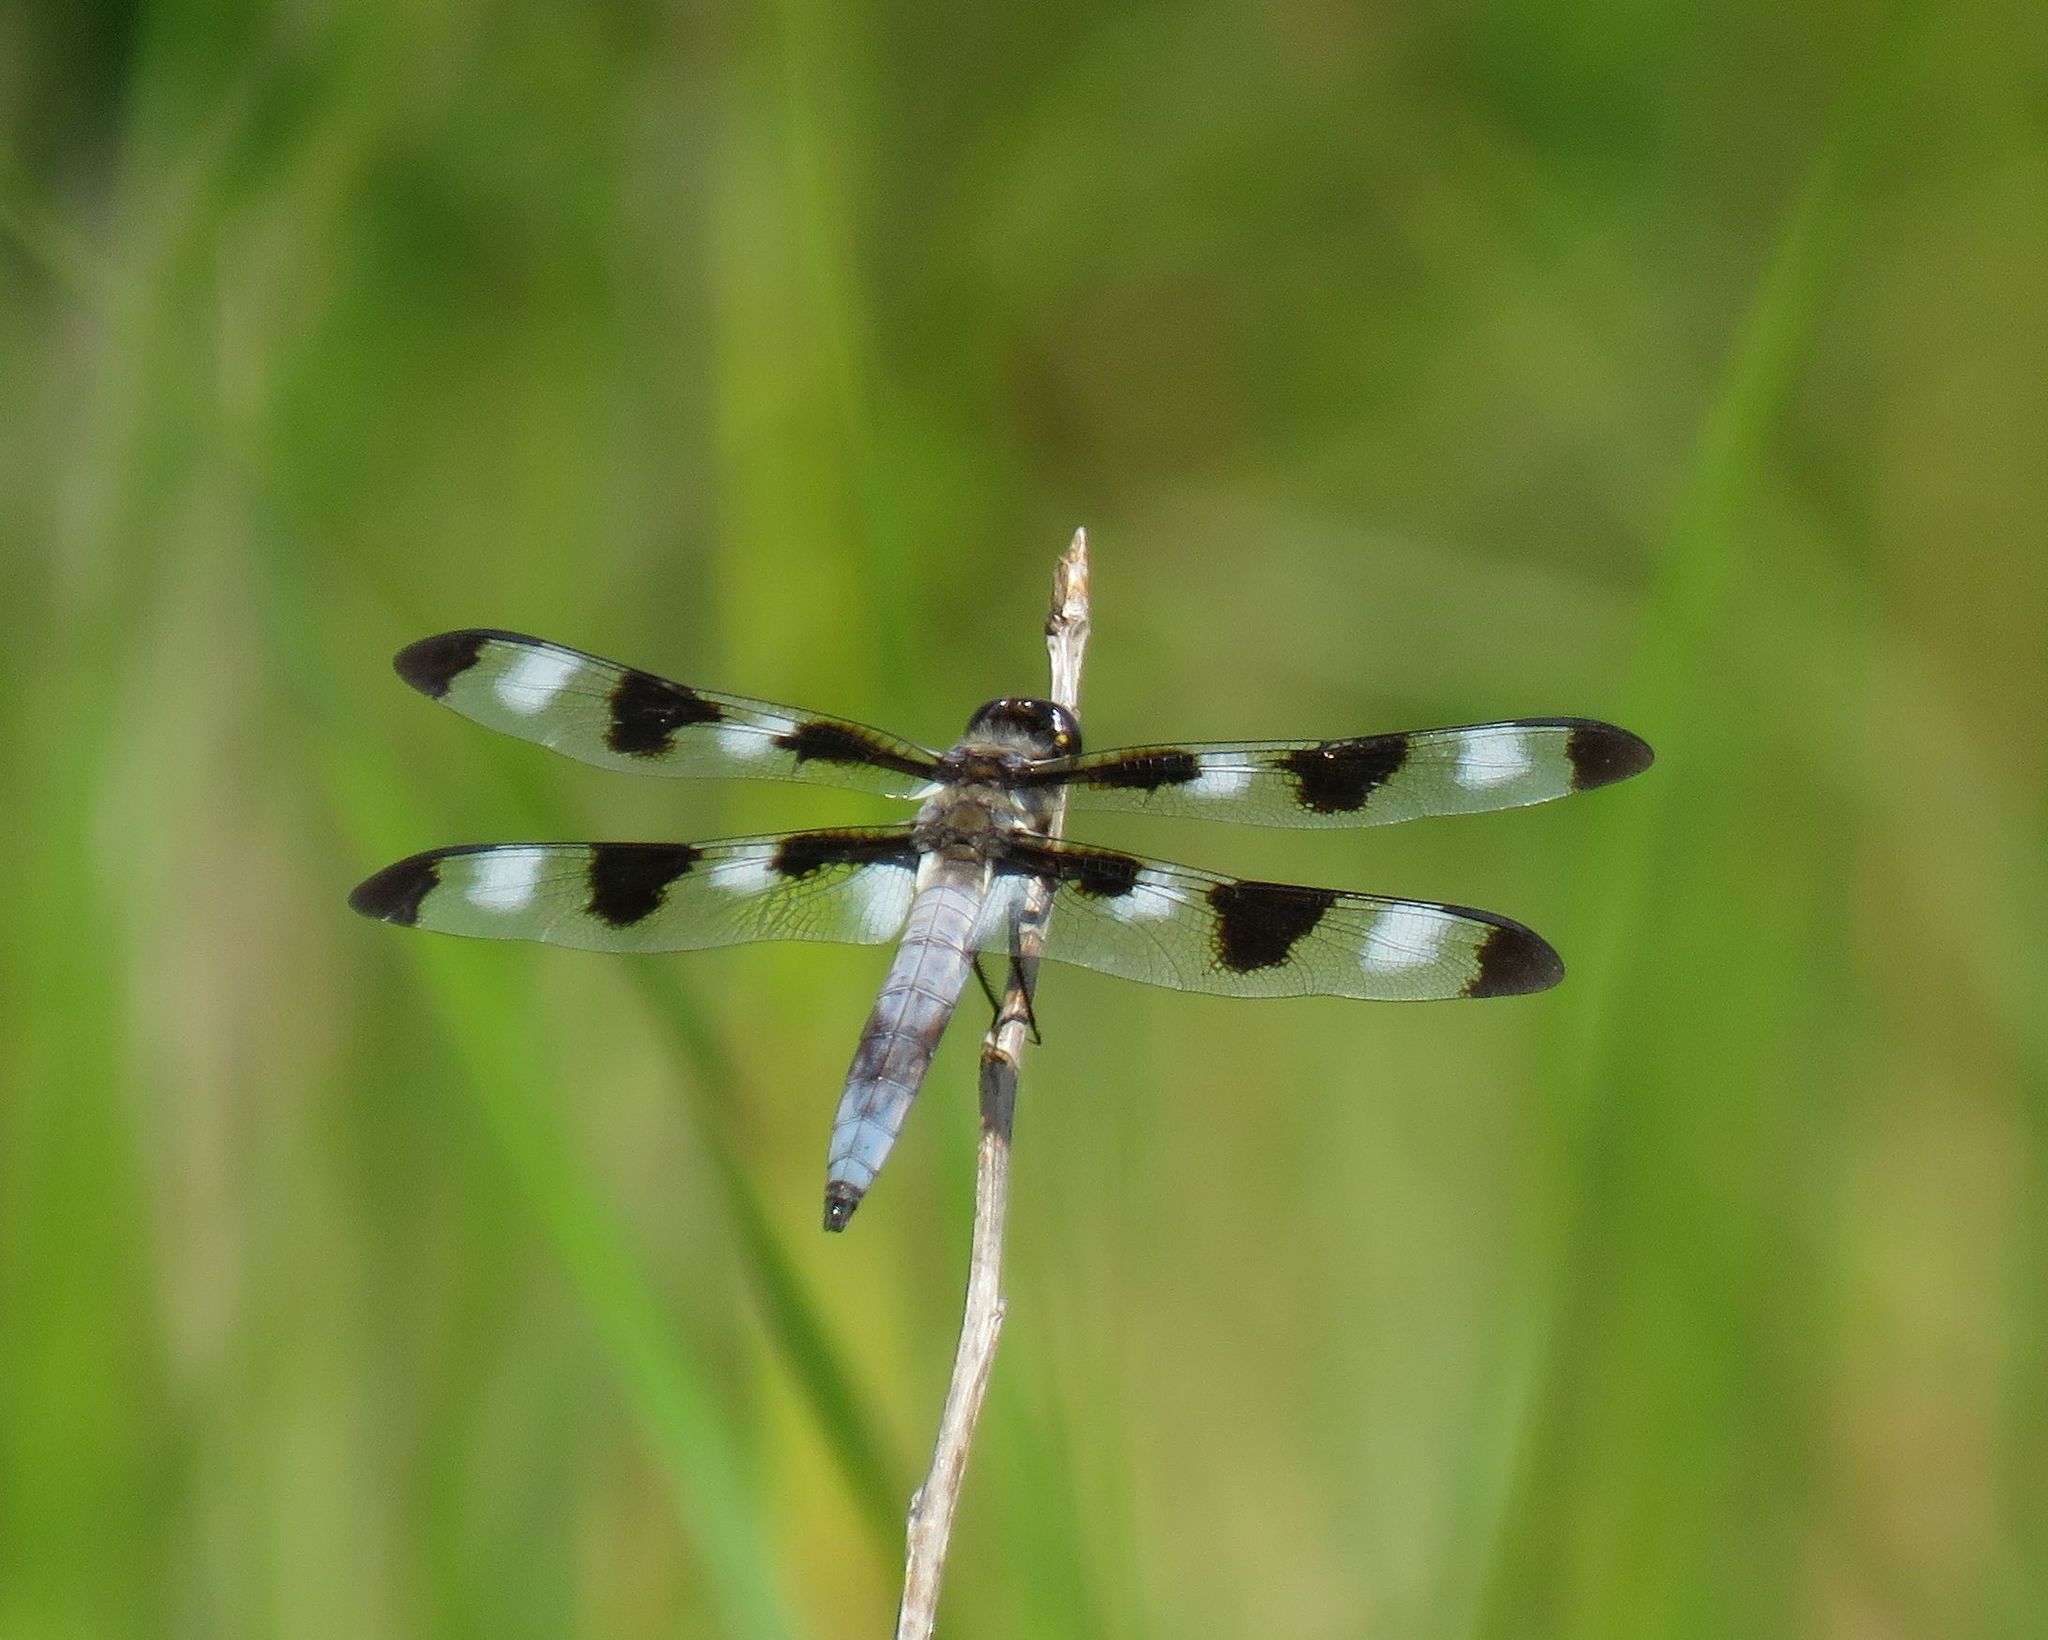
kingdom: Animalia
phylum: Arthropoda
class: Insecta
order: Odonata
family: Libellulidae
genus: Libellula
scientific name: Libellula pulchella
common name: Twelve-spotted skimmer
